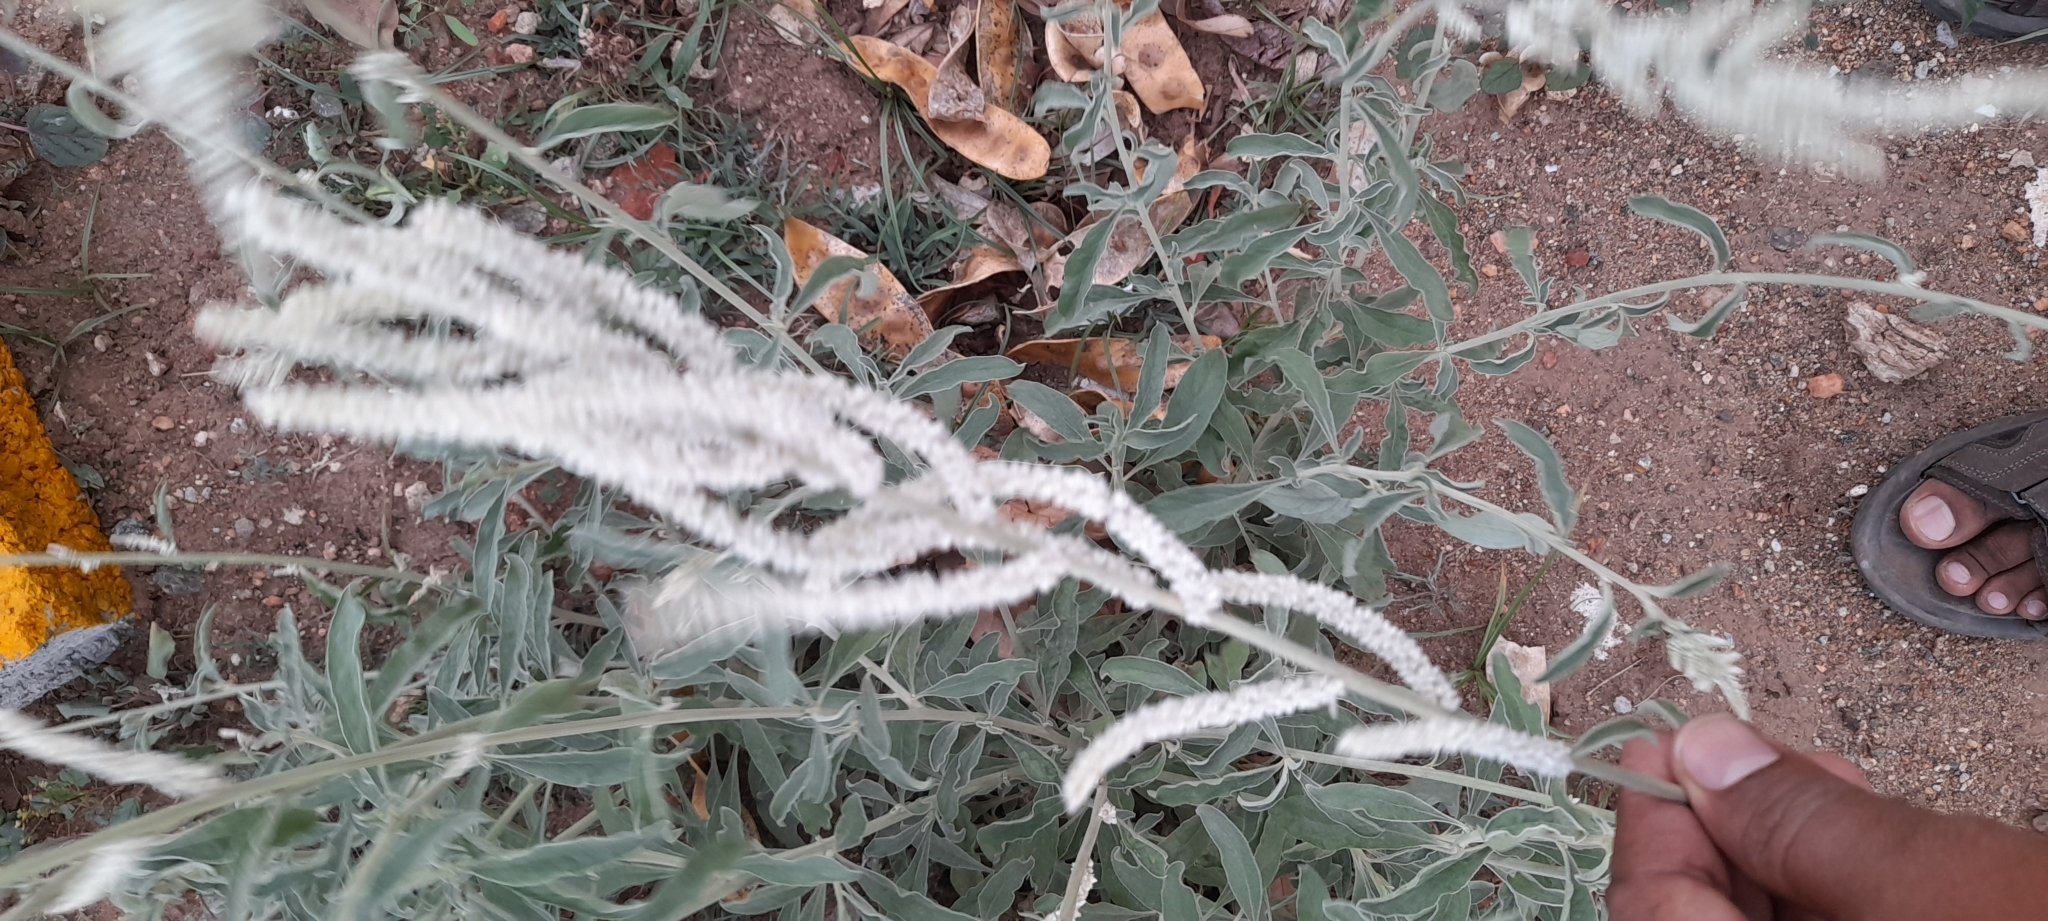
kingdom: Plantae
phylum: Tracheophyta
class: Magnoliopsida
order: Caryophyllales
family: Amaranthaceae
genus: Aerva
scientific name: Aerva javanica
